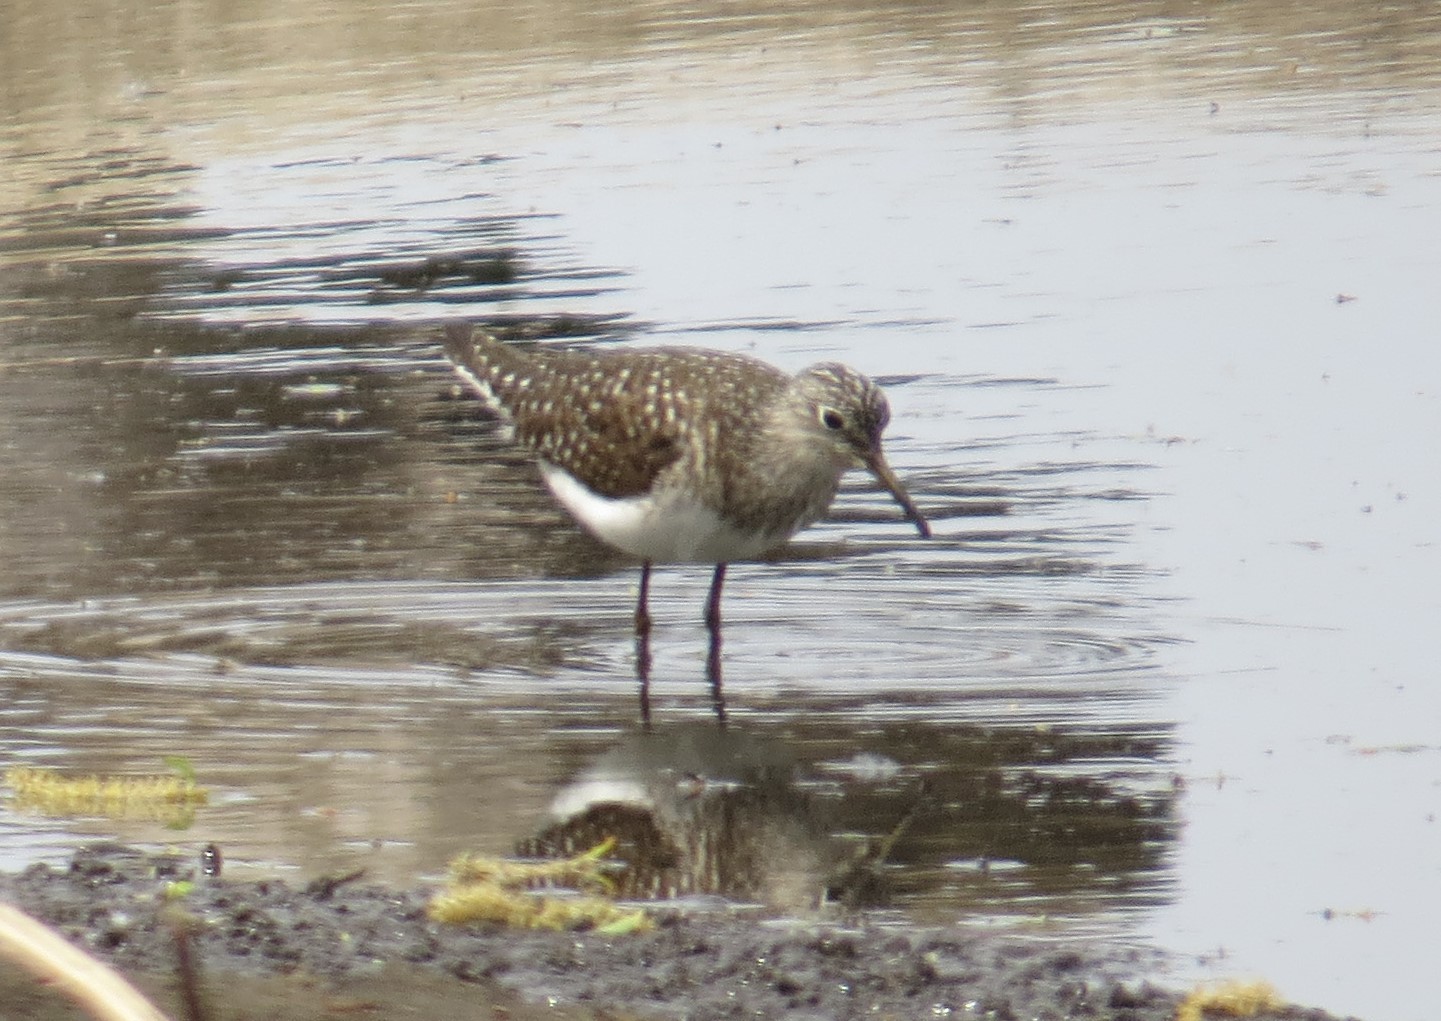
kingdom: Animalia
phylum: Chordata
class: Aves
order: Charadriiformes
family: Scolopacidae
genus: Tringa
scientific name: Tringa solitaria
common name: Solitary sandpiper
